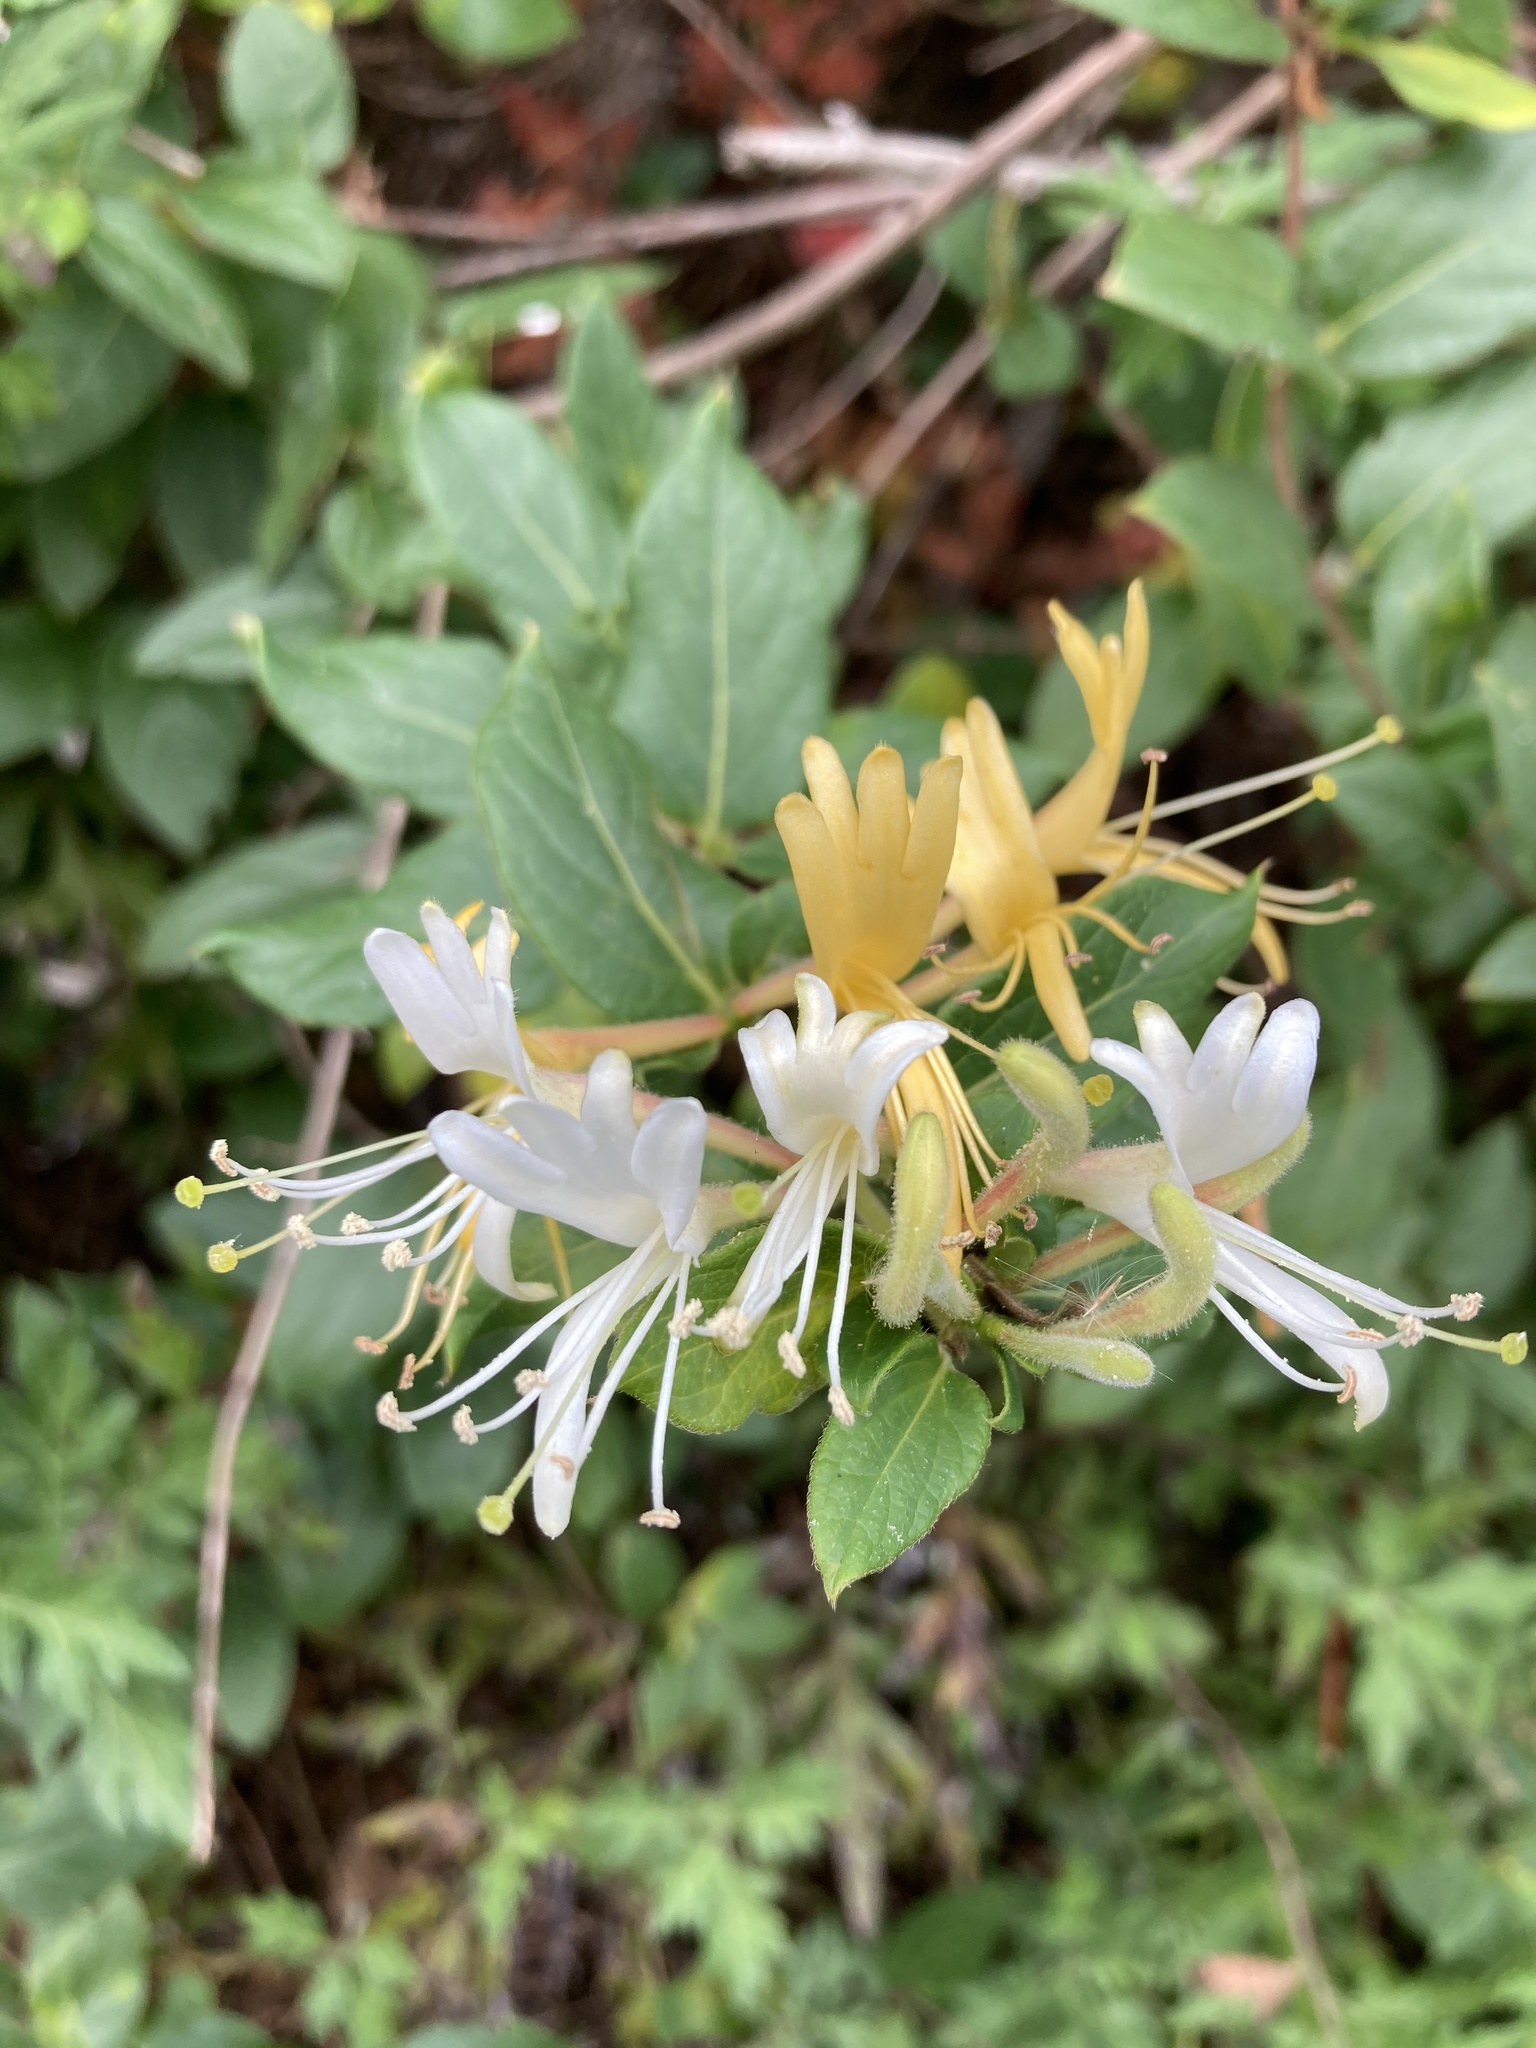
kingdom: Plantae
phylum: Tracheophyta
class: Magnoliopsida
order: Dipsacales
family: Caprifoliaceae
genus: Lonicera
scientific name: Lonicera japonica
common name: Japanese honeysuckle
